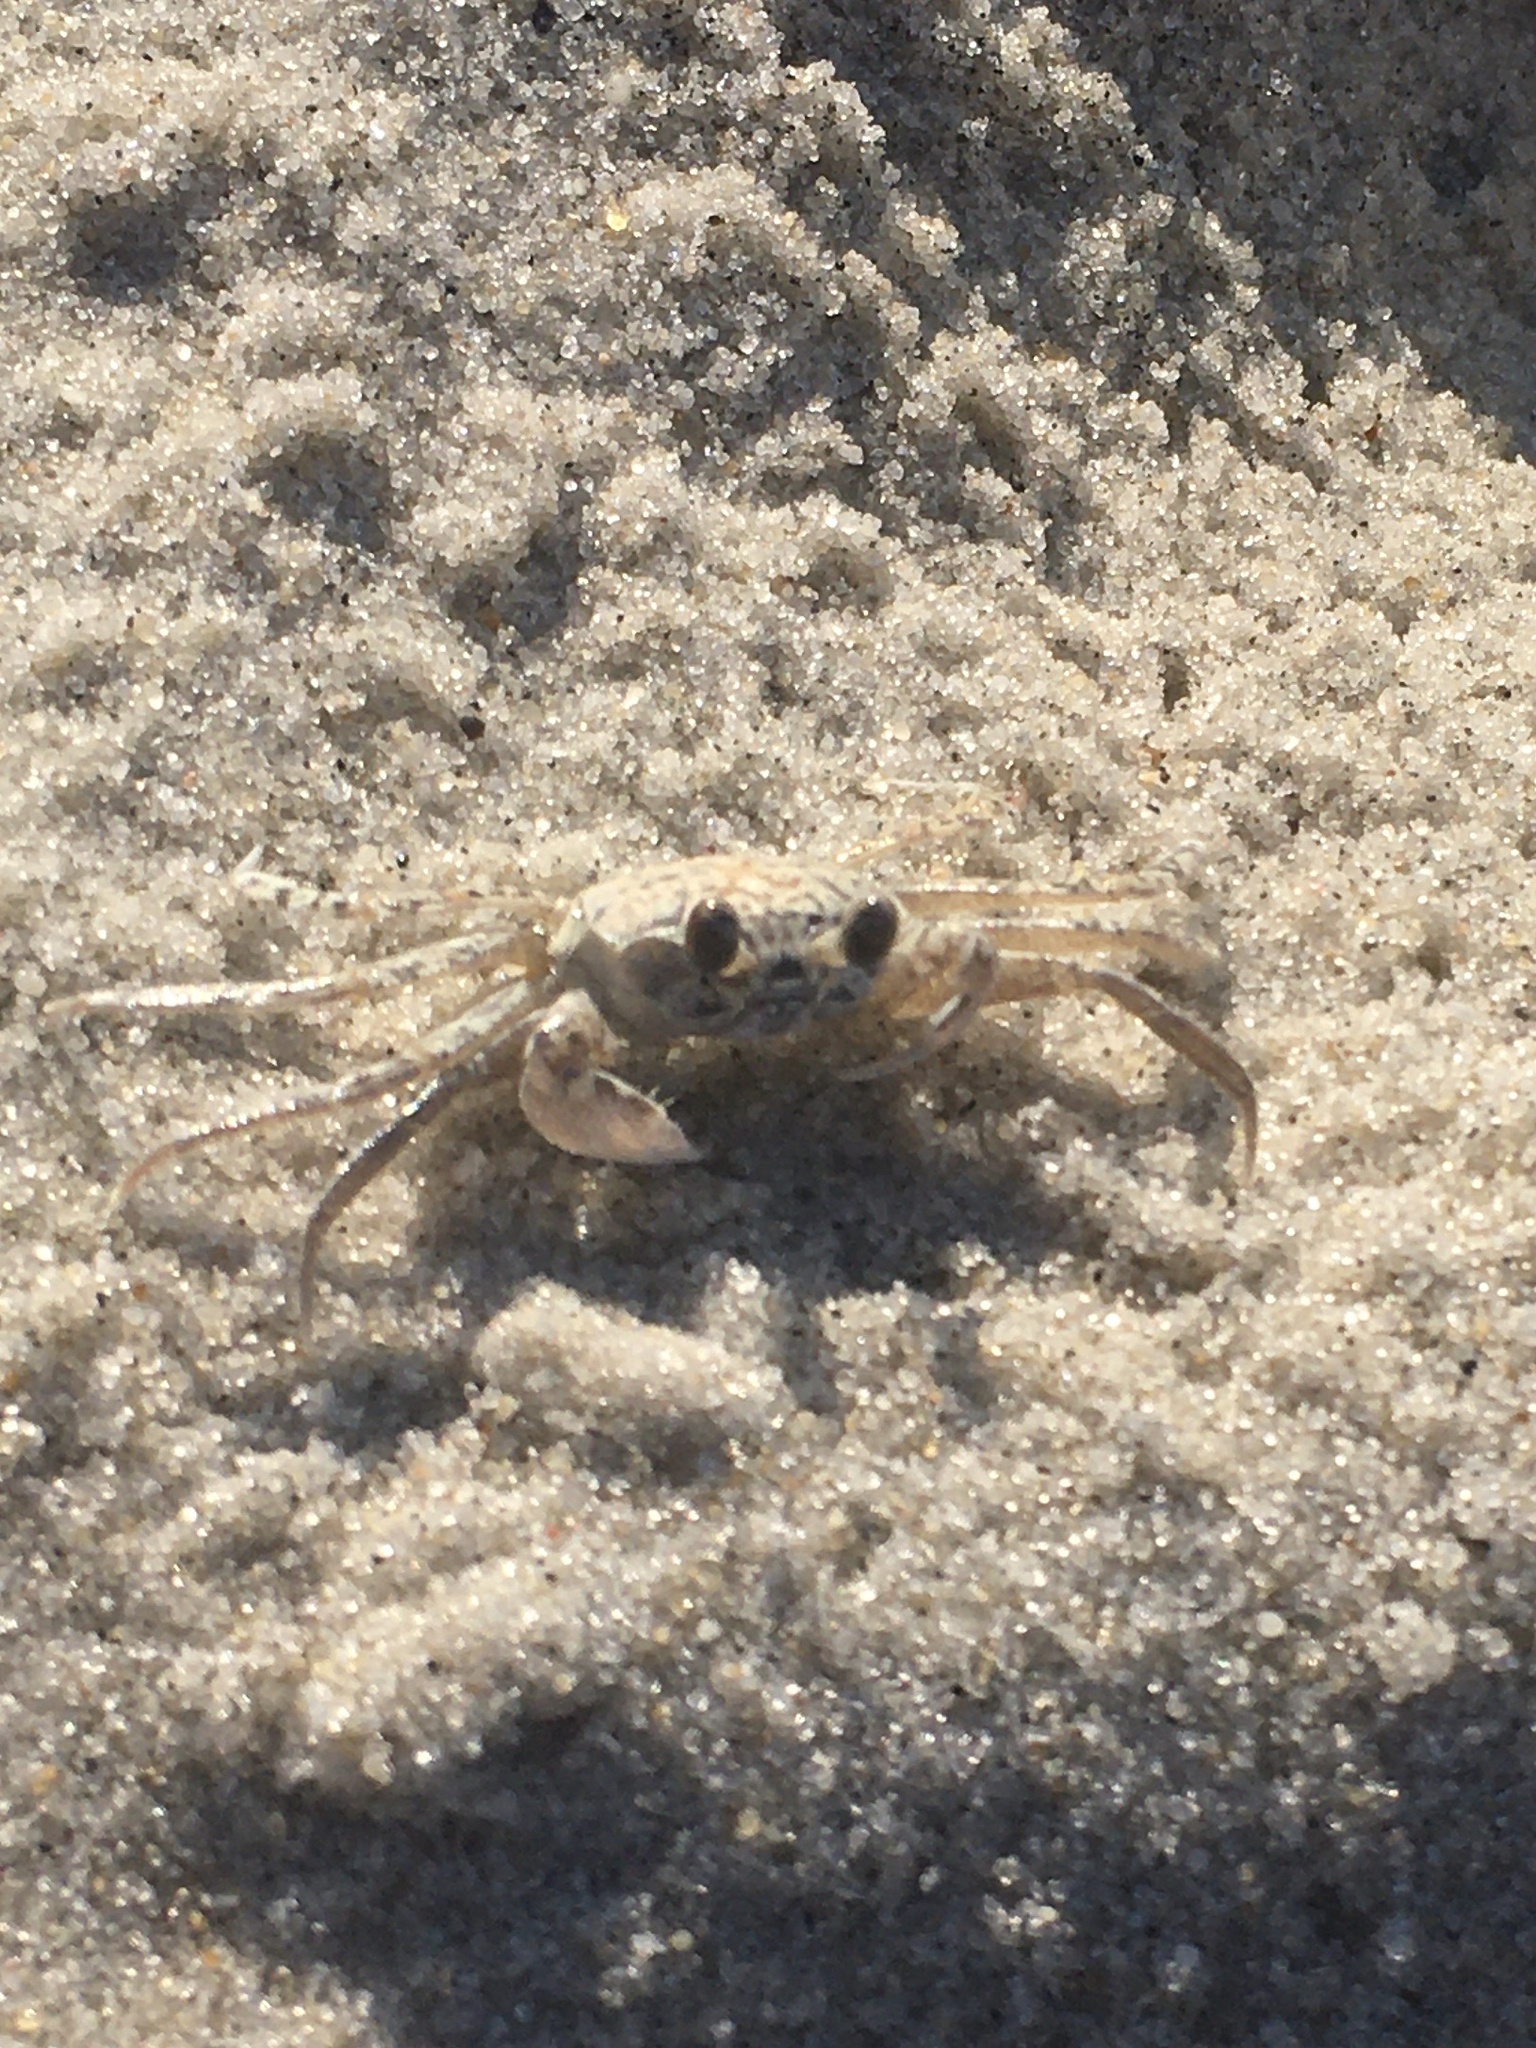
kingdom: Animalia
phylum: Arthropoda
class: Malacostraca
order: Decapoda
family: Ocypodidae
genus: Ocypode
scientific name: Ocypode quadrata
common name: Ghost crab
